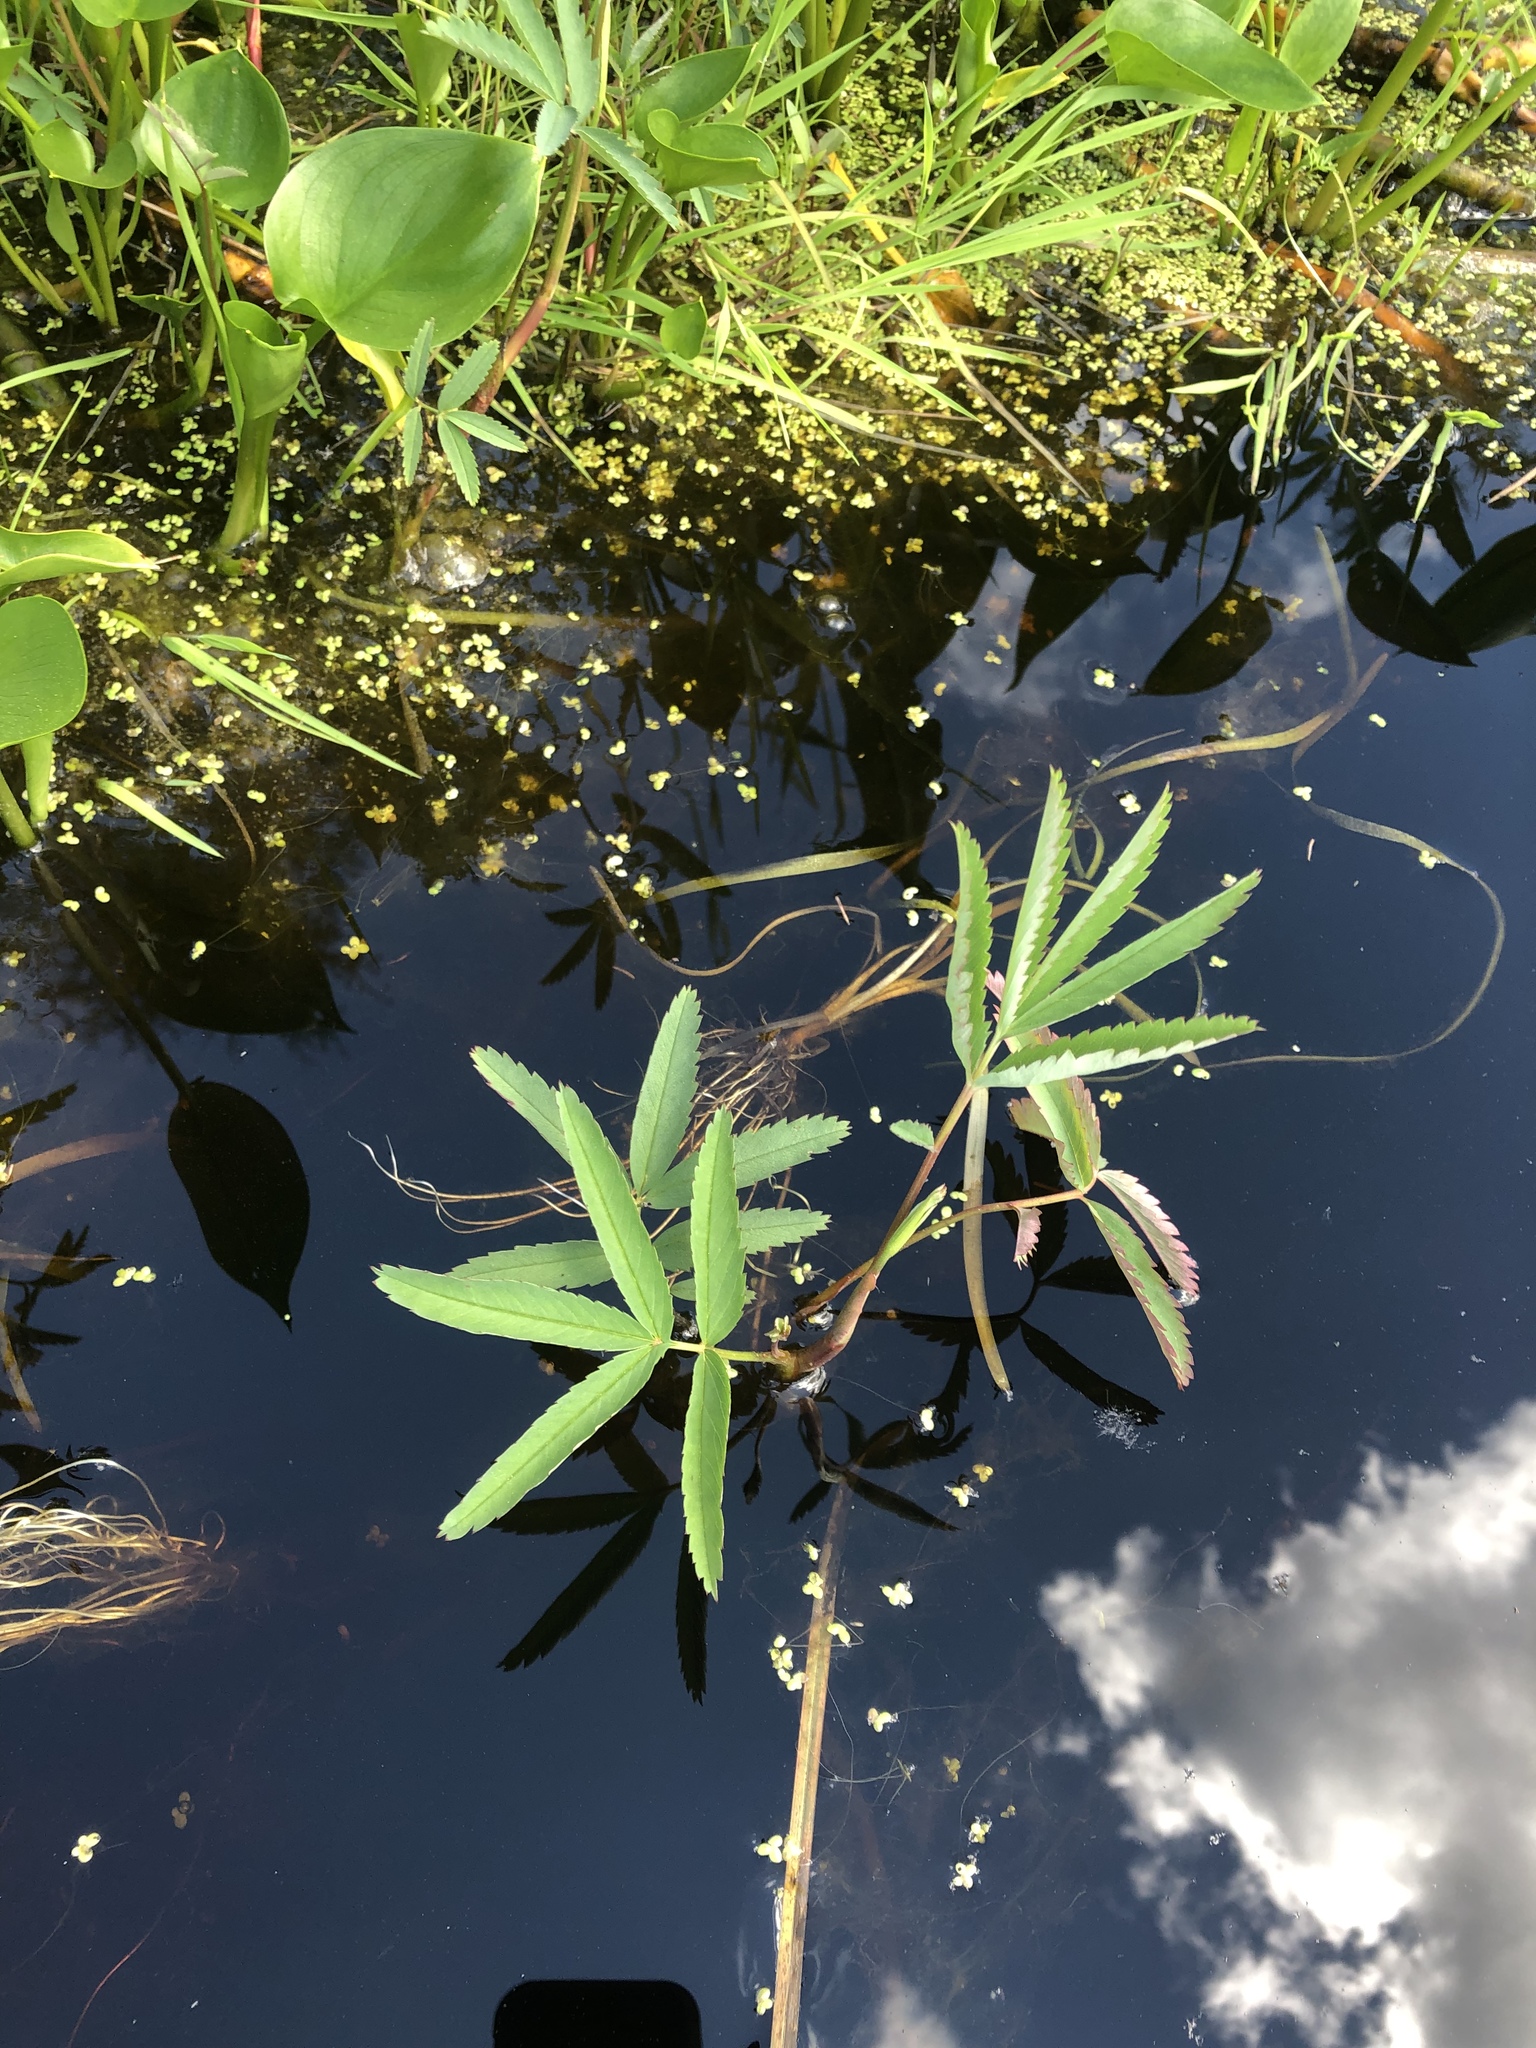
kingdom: Plantae
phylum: Tracheophyta
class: Magnoliopsida
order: Rosales
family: Rosaceae
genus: Comarum
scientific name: Comarum palustre
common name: Marsh cinquefoil
